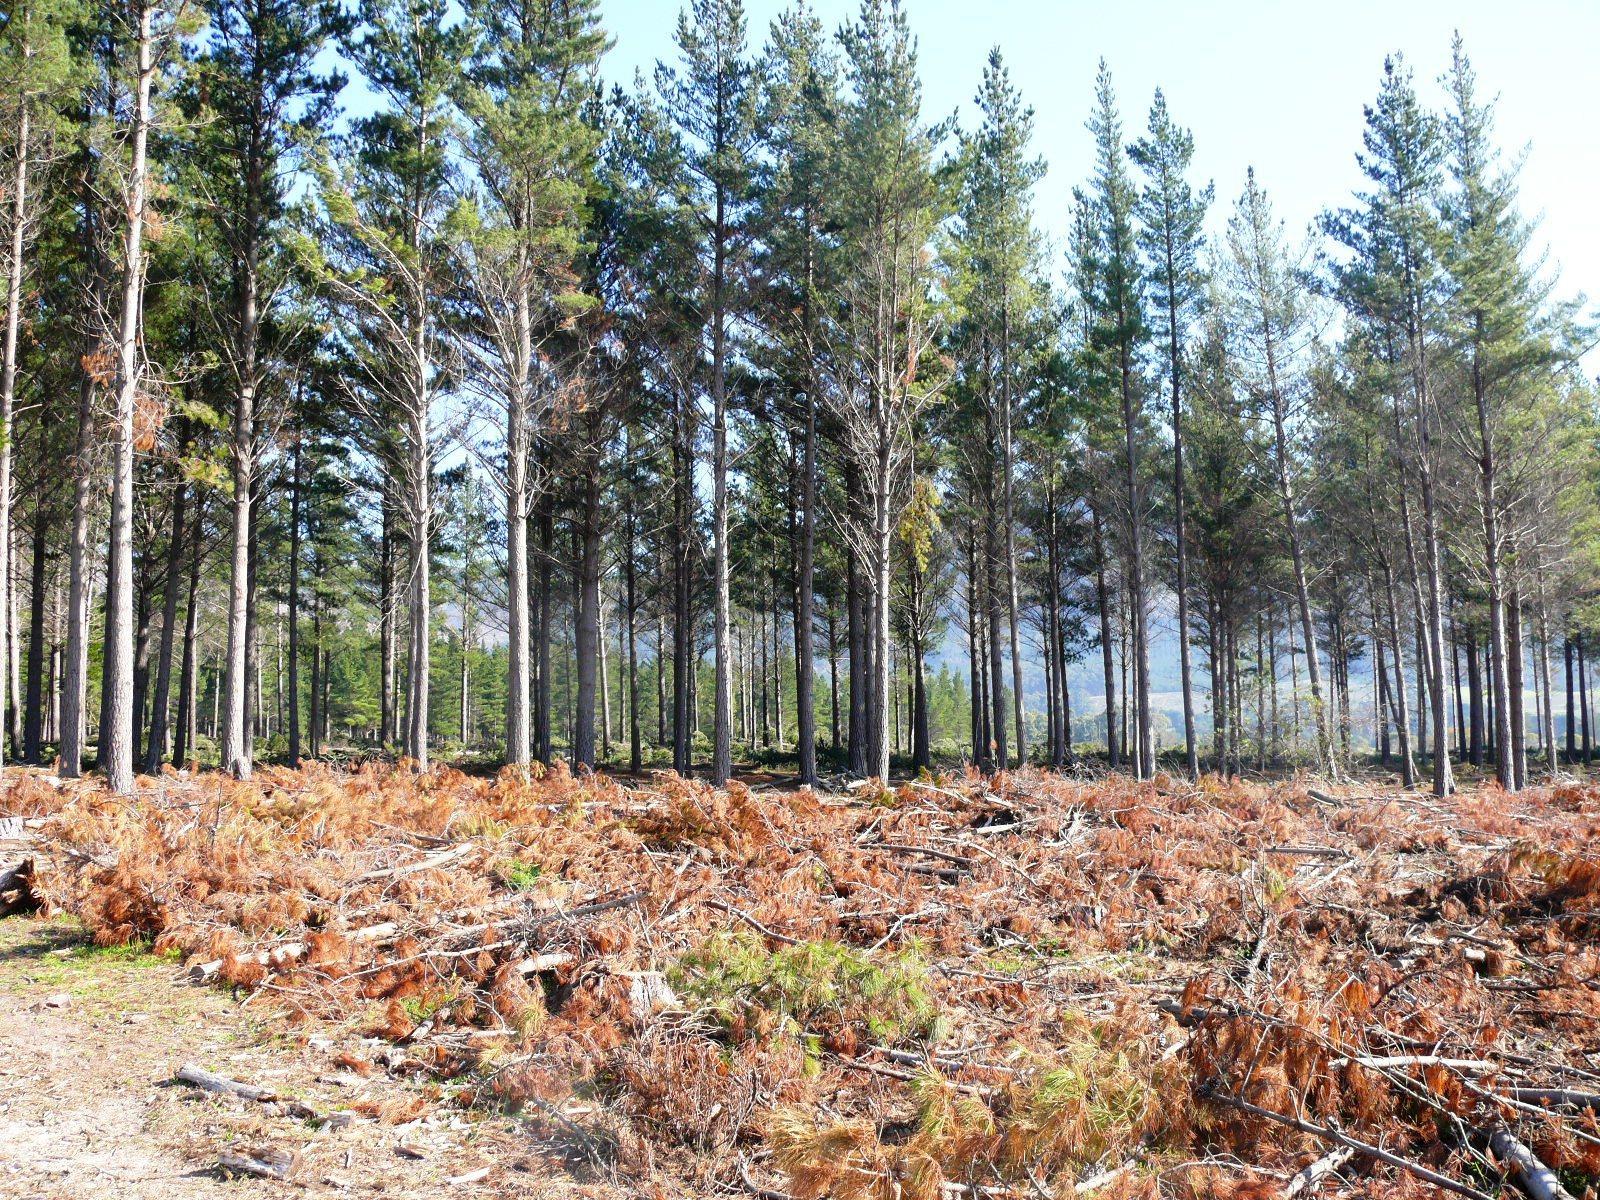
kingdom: Plantae
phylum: Tracheophyta
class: Pinopsida
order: Pinales
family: Pinaceae
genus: Pinus
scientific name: Pinus radiata
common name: Monterey pine
